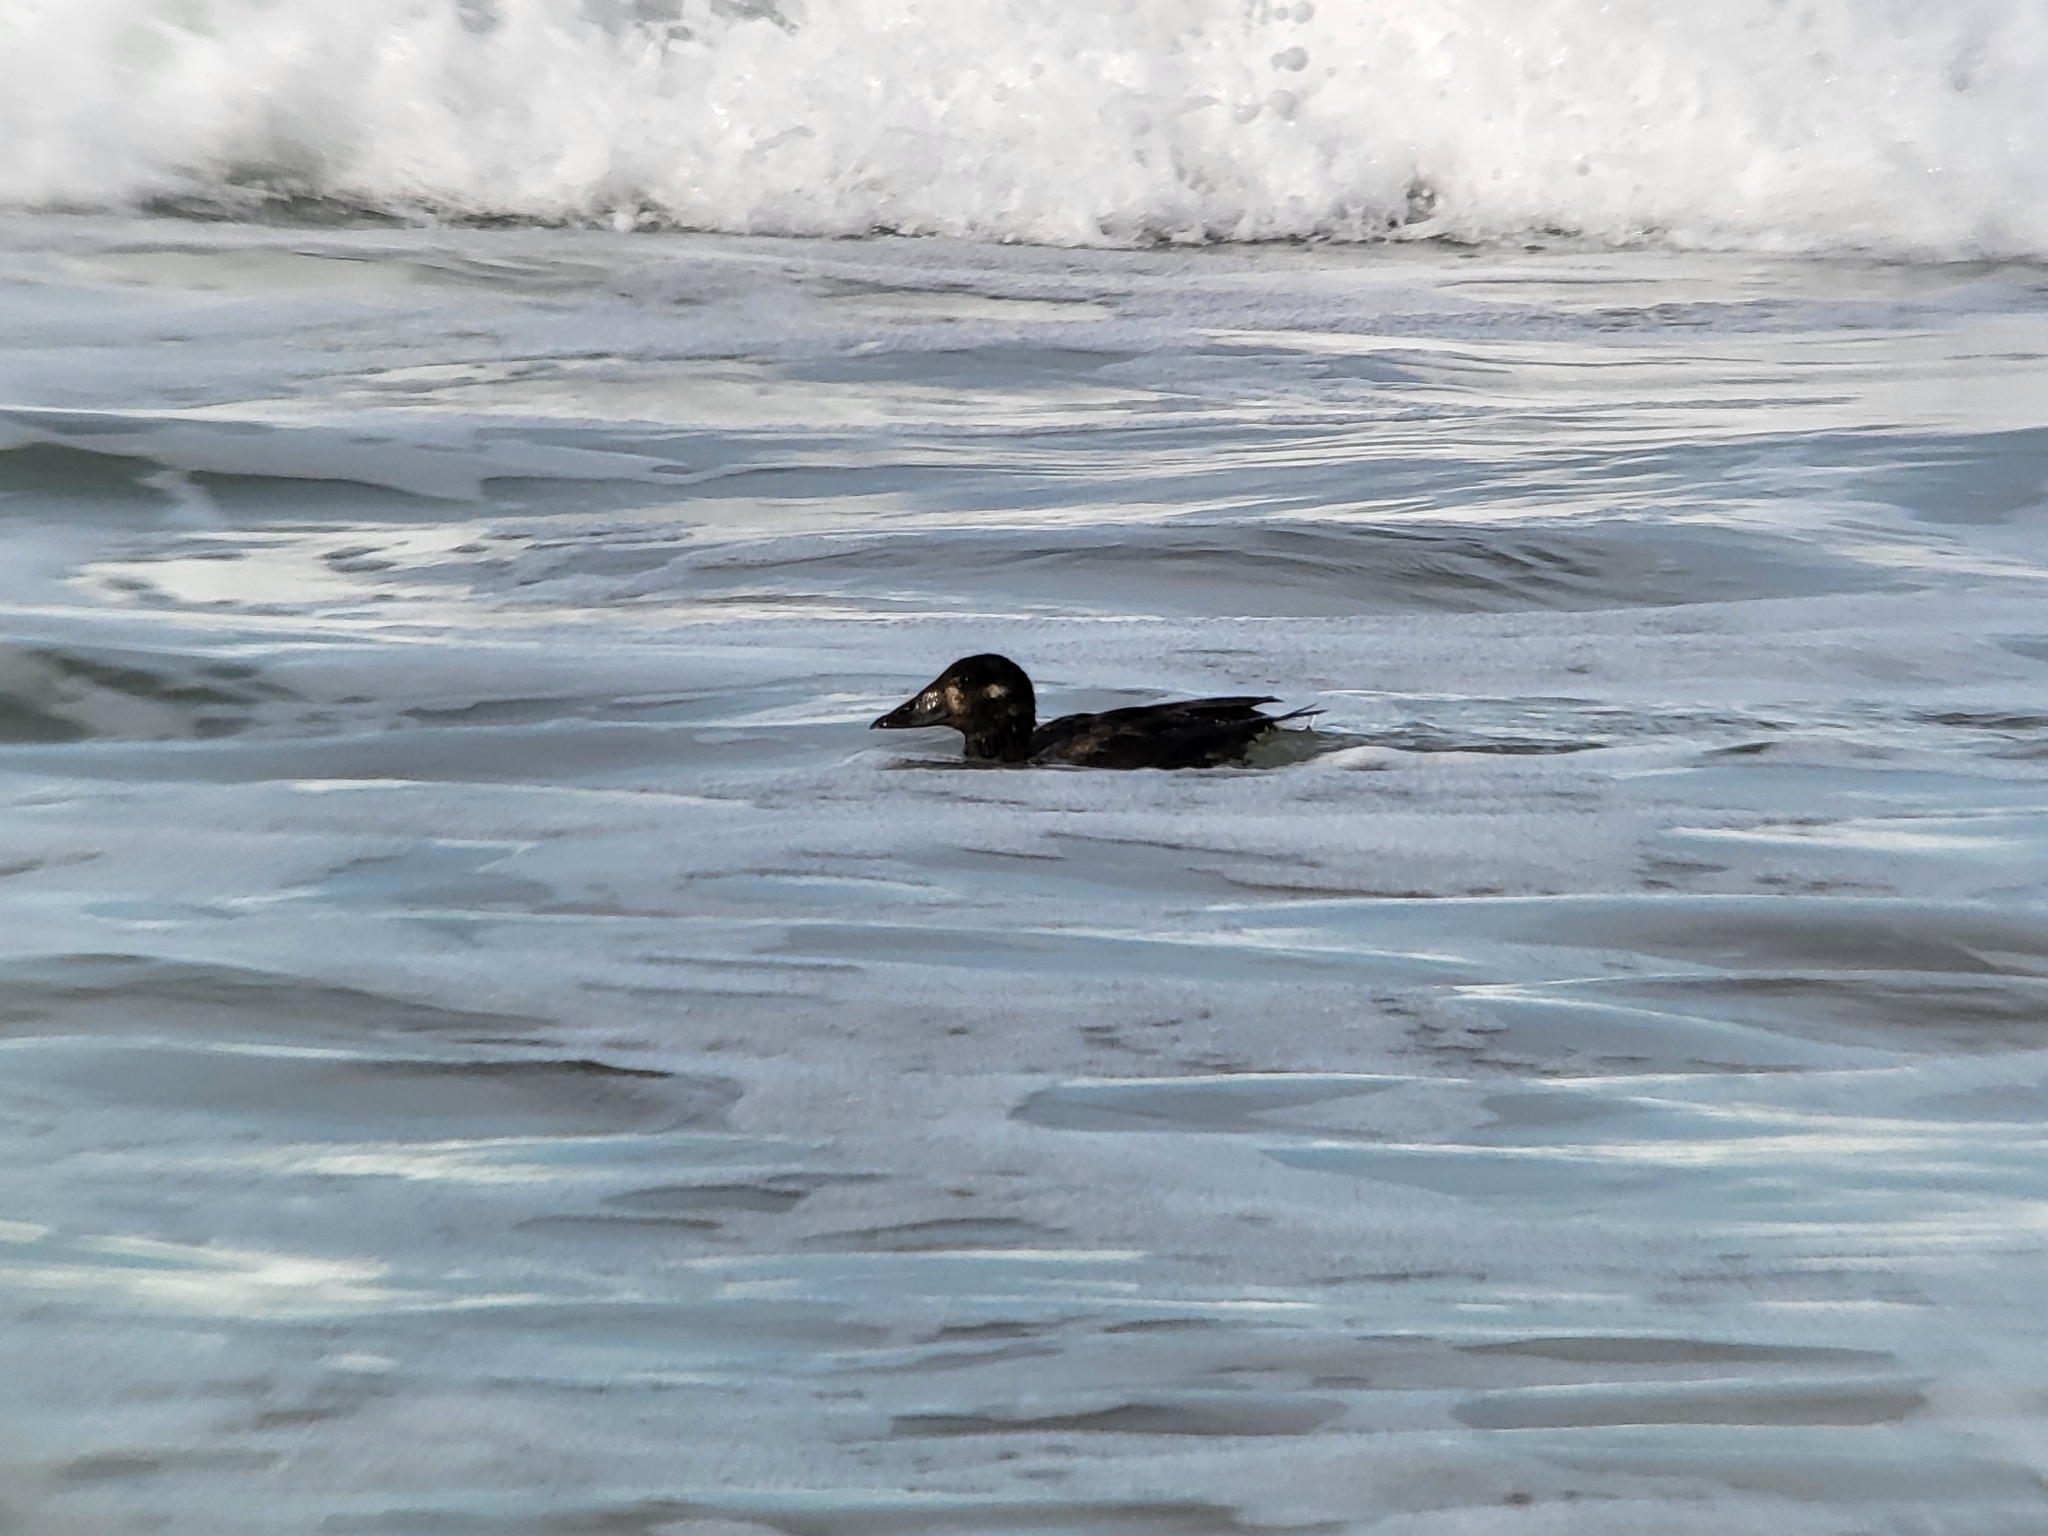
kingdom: Animalia
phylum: Chordata
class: Aves
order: Anseriformes
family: Anatidae
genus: Melanitta
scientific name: Melanitta perspicillata
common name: Surf scoter
